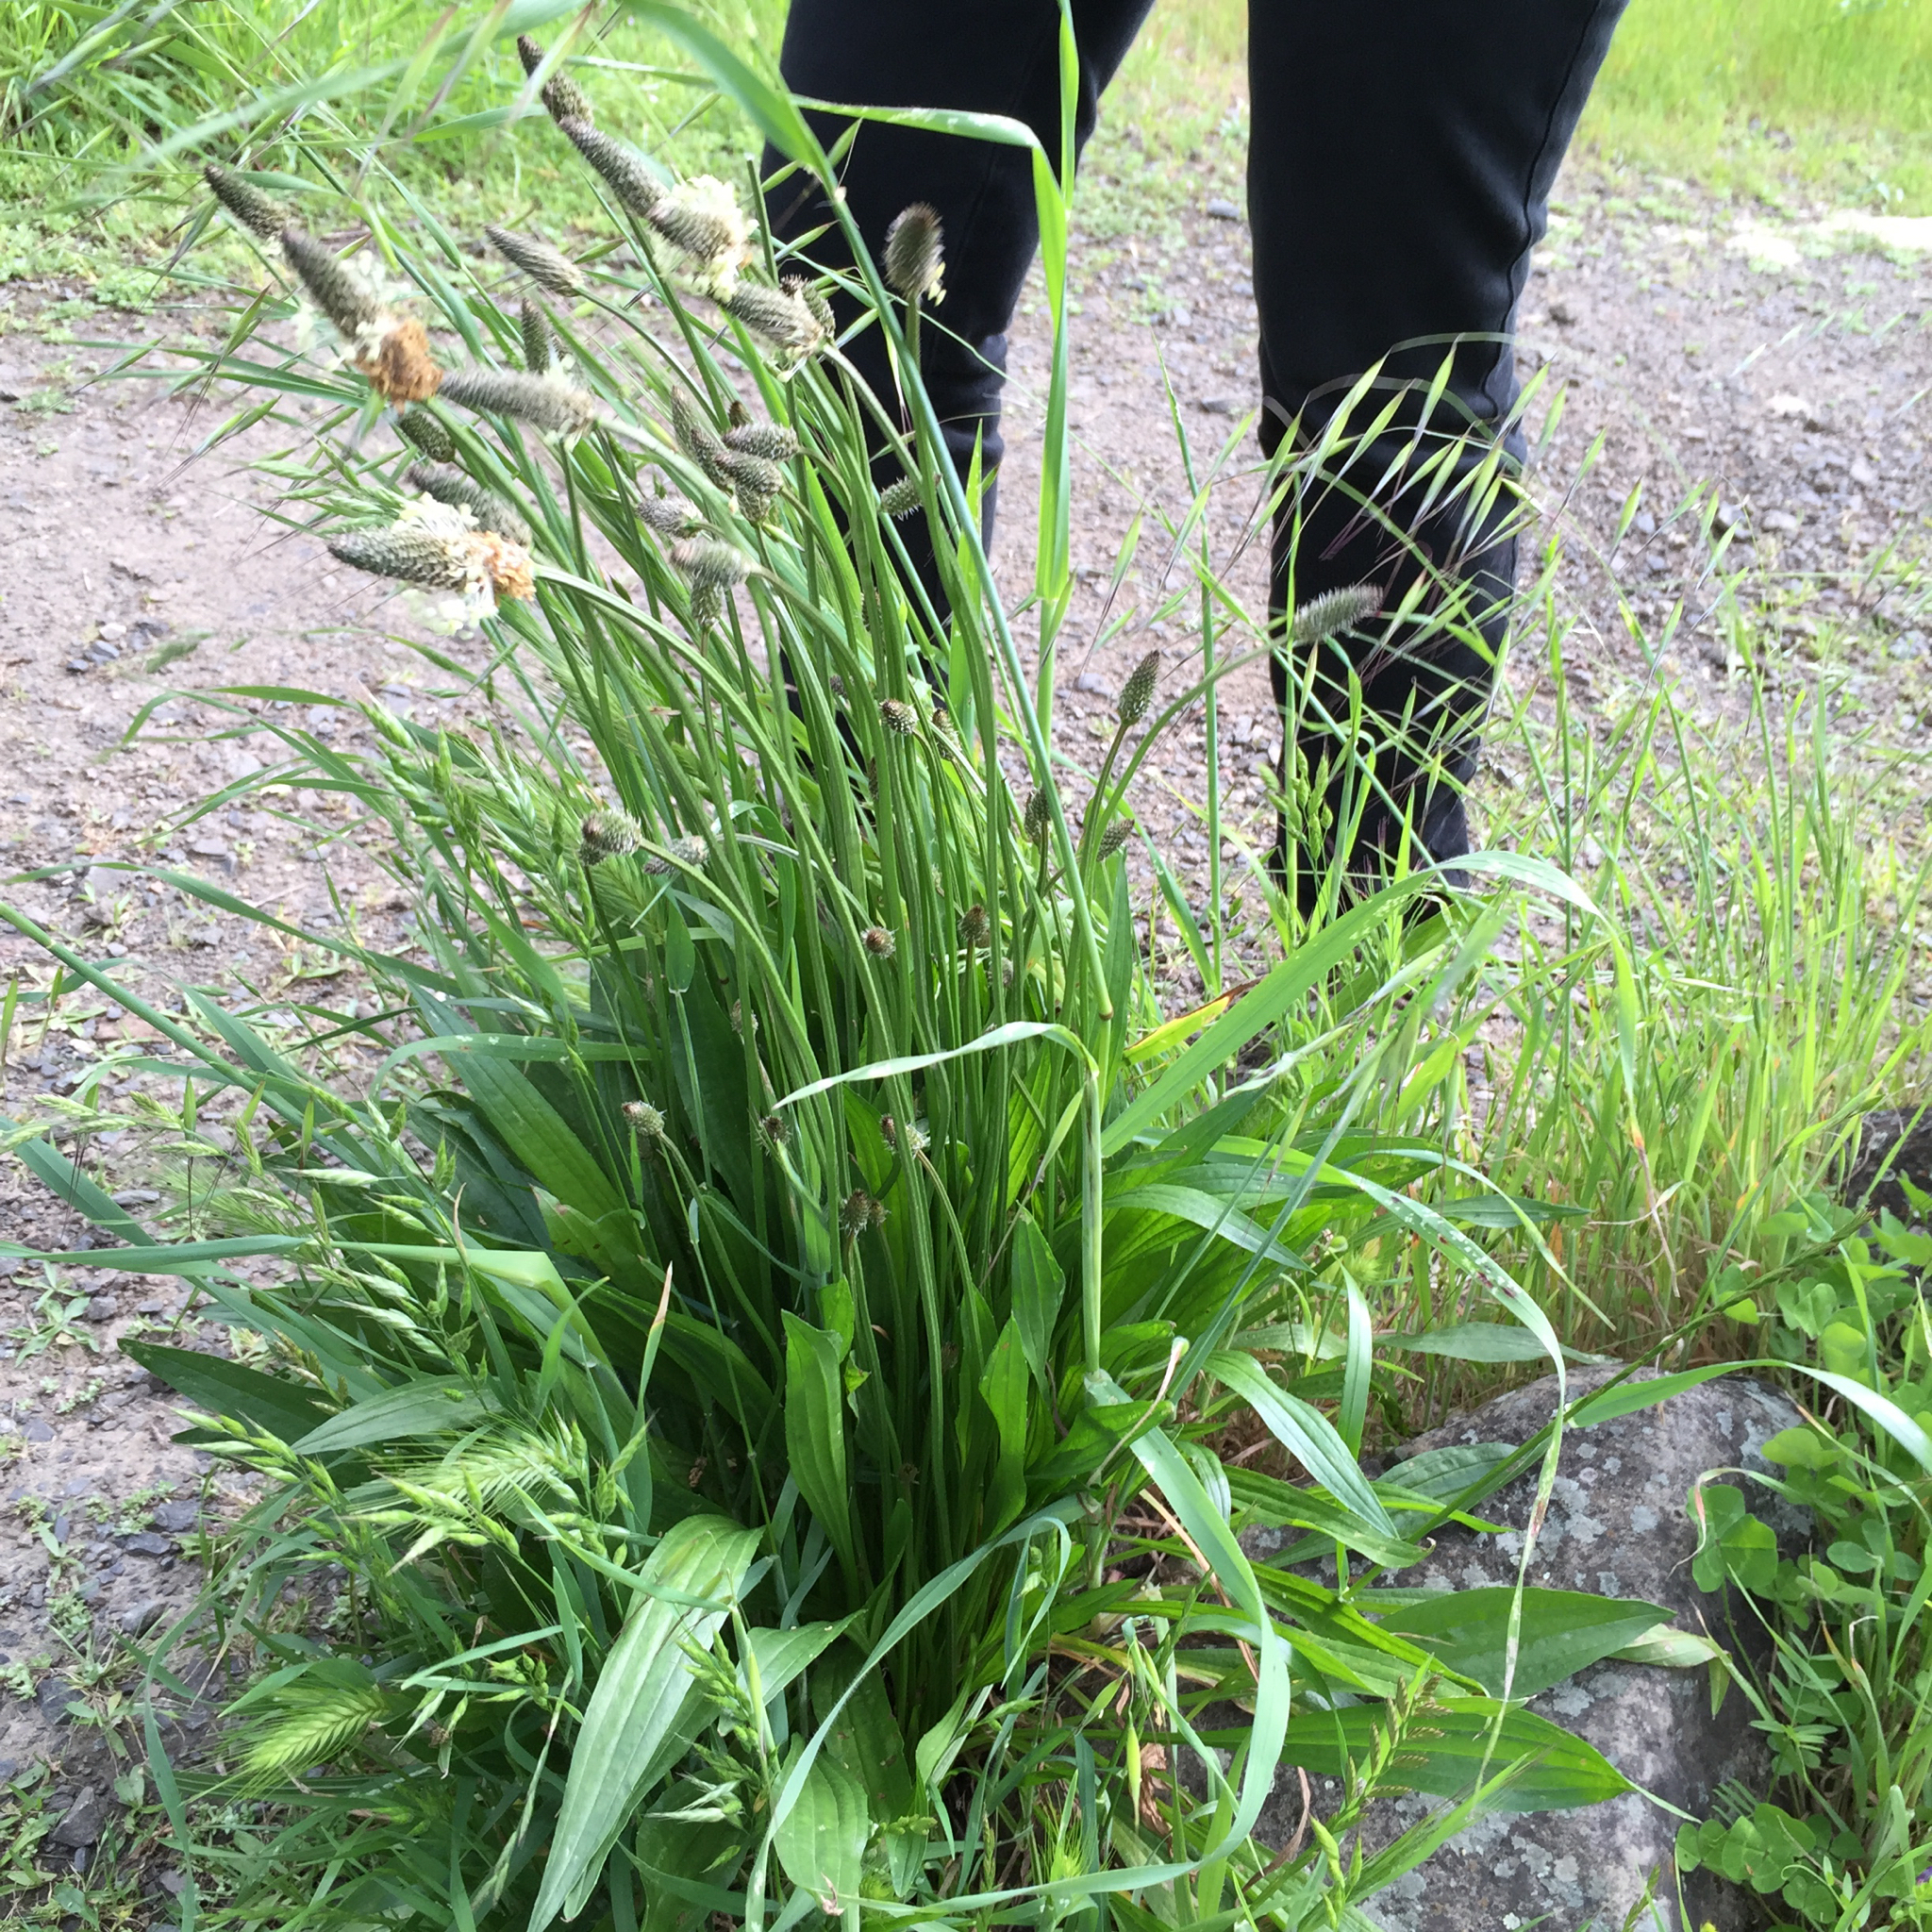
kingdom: Plantae
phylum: Tracheophyta
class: Magnoliopsida
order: Lamiales
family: Plantaginaceae
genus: Plantago
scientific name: Plantago lanceolata
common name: Ribwort plantain
